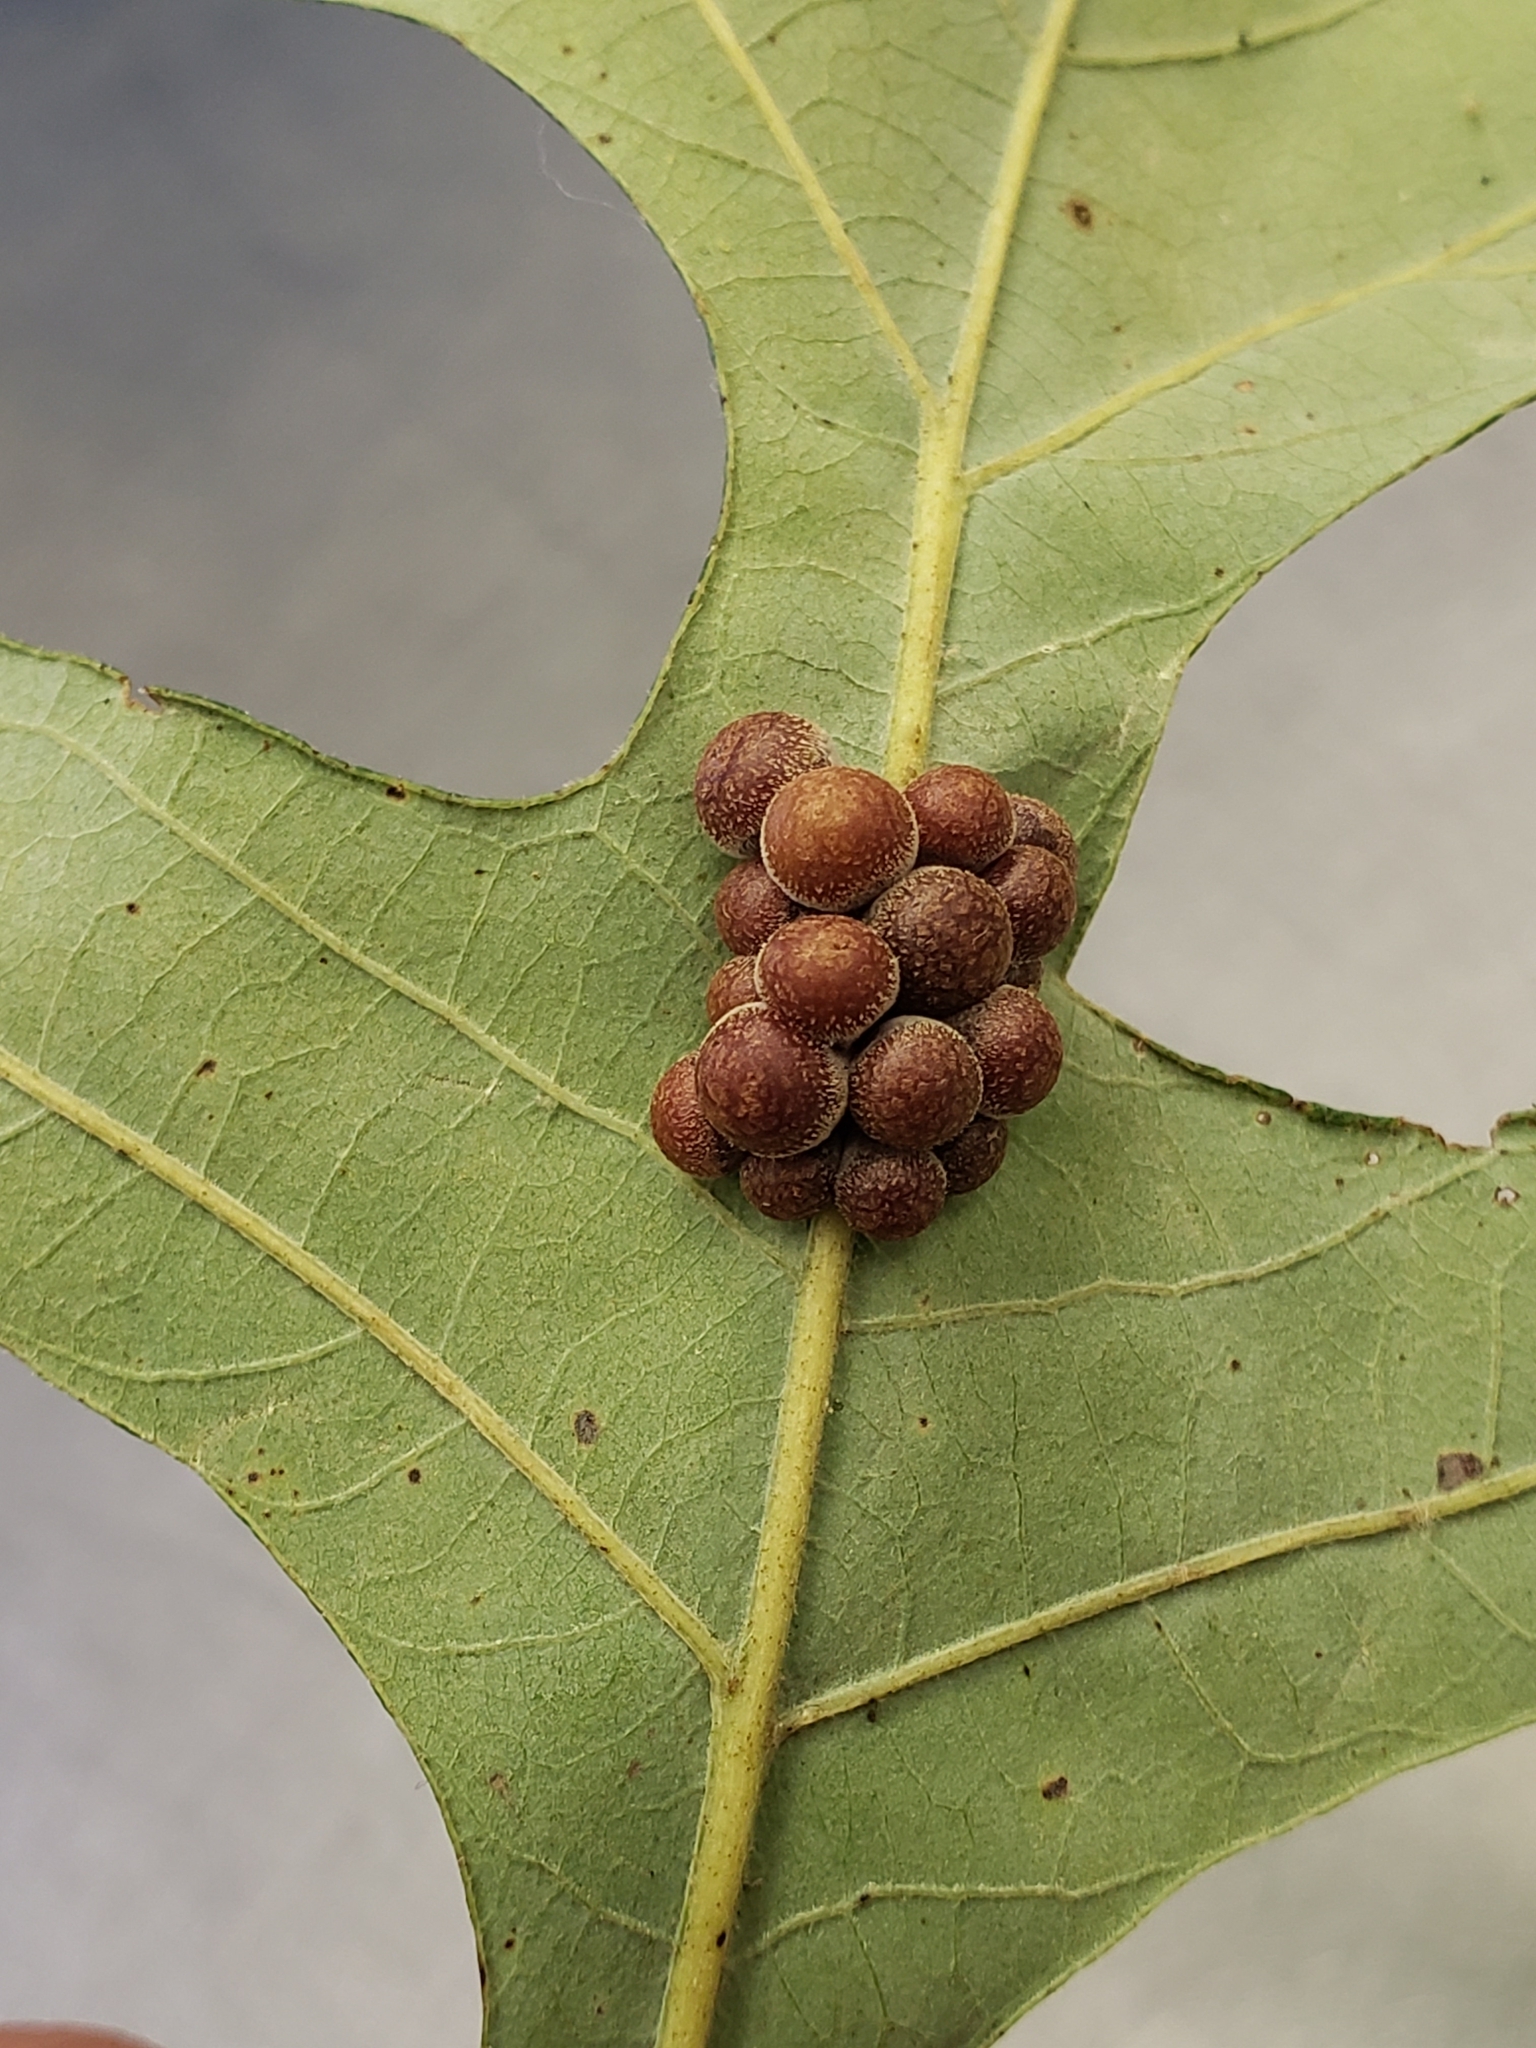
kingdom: Animalia
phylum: Arthropoda
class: Insecta
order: Hymenoptera
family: Cynipidae
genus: Andricus
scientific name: Andricus
